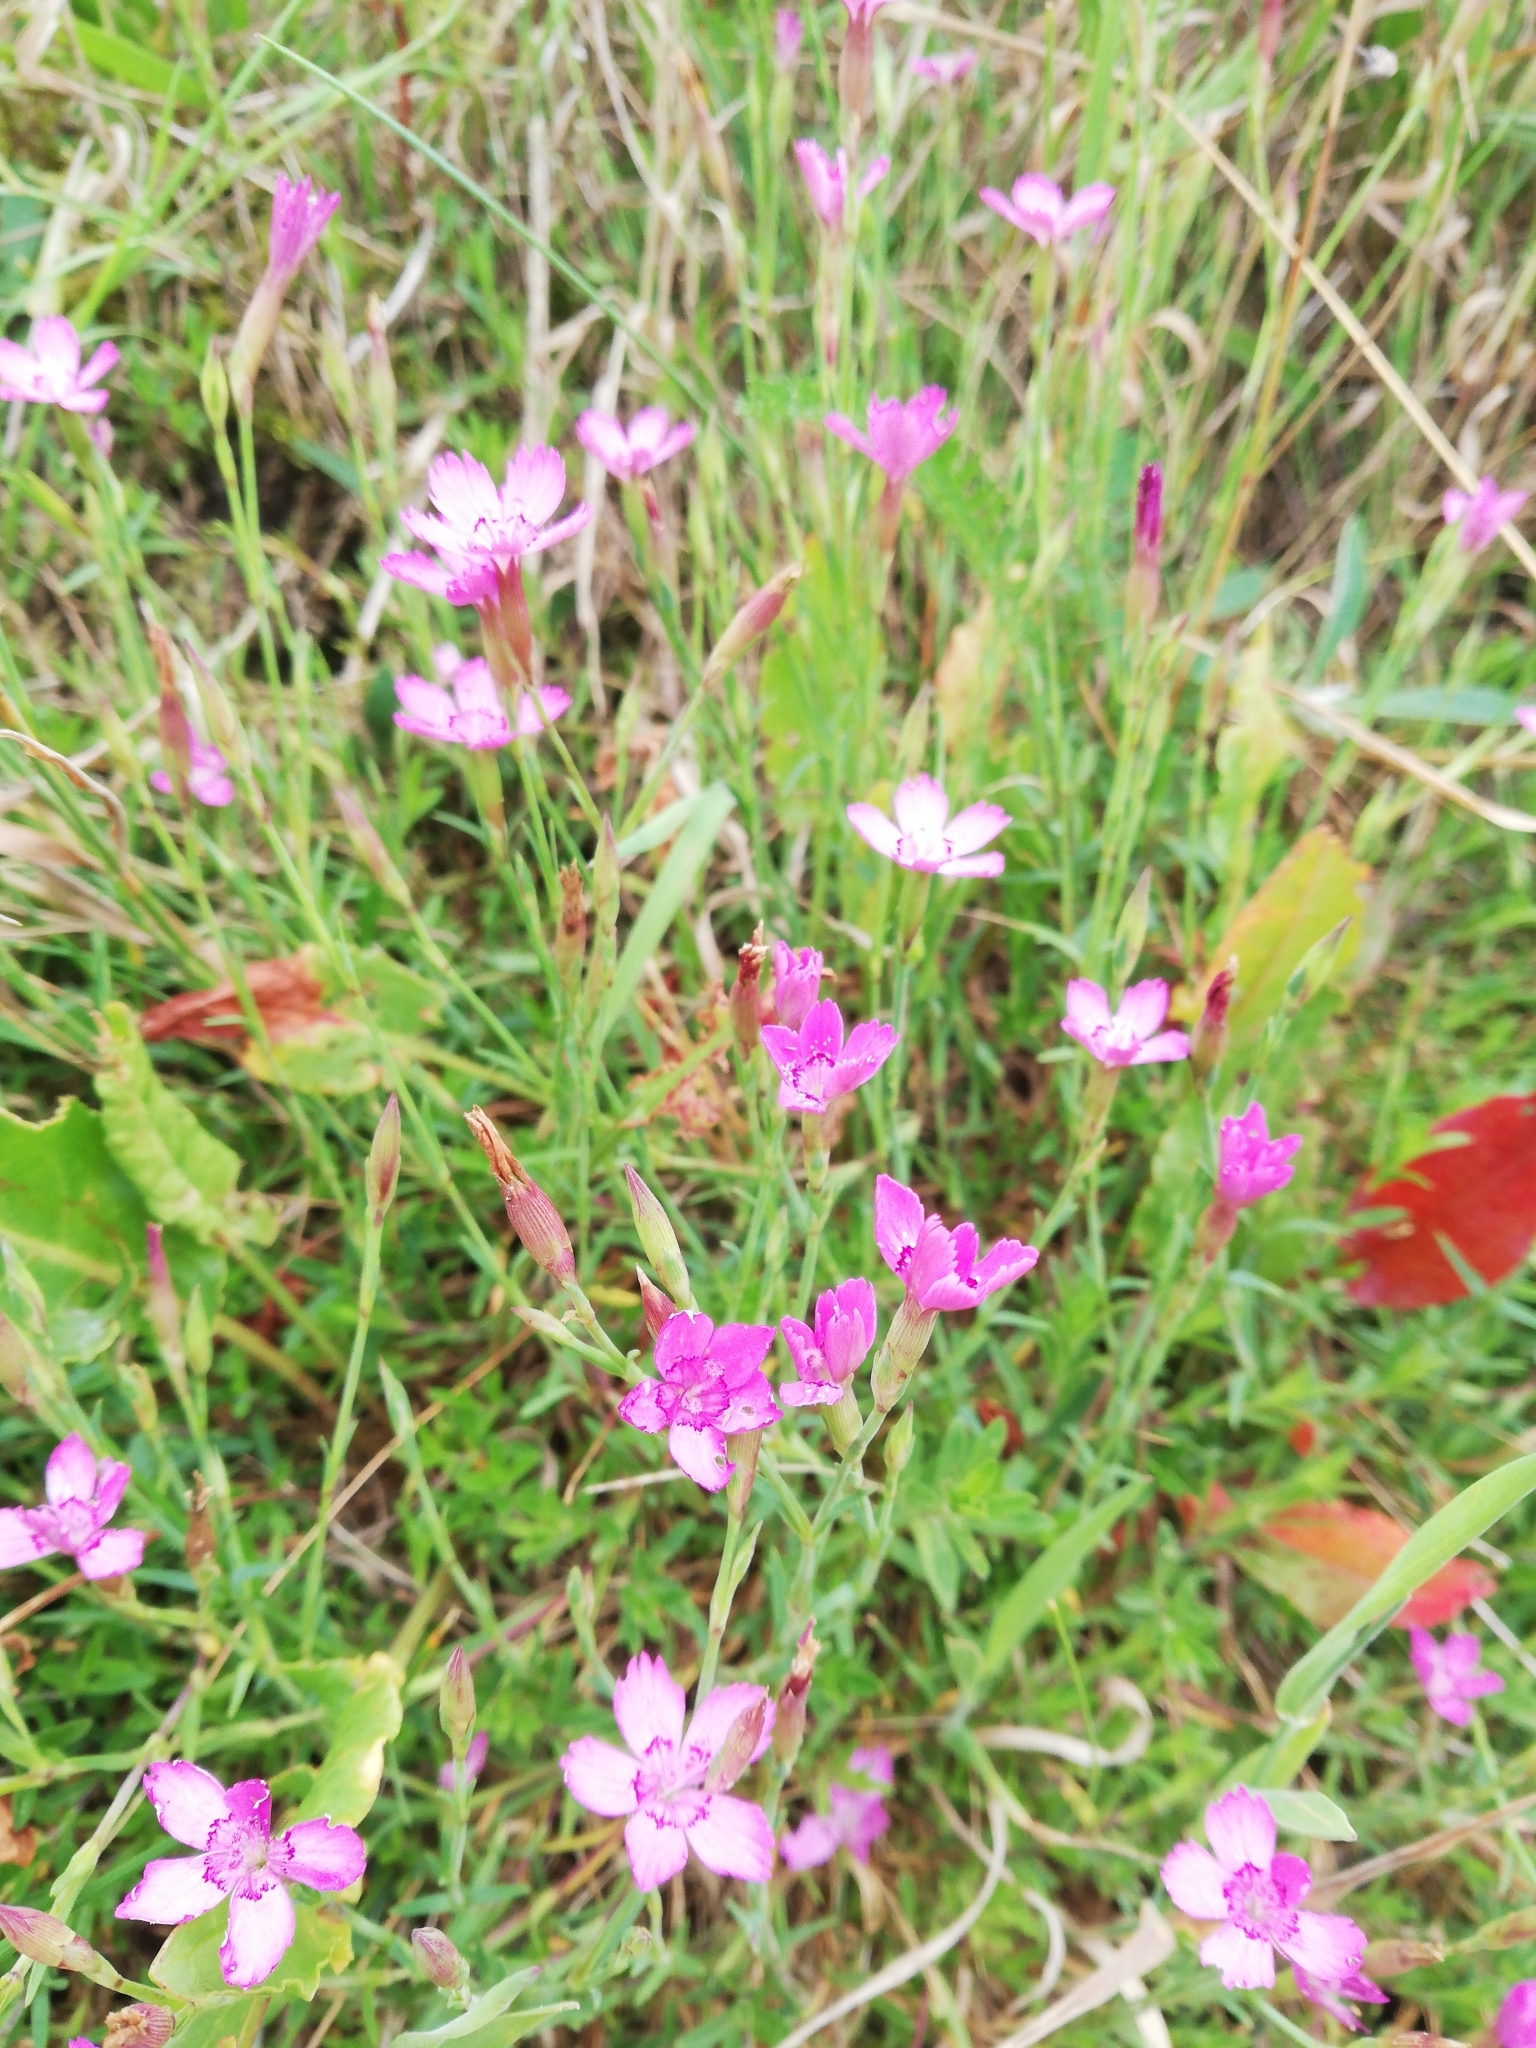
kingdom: Plantae
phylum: Tracheophyta
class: Magnoliopsida
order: Caryophyllales
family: Caryophyllaceae
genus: Dianthus
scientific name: Dianthus deltoides
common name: Maiden pink
